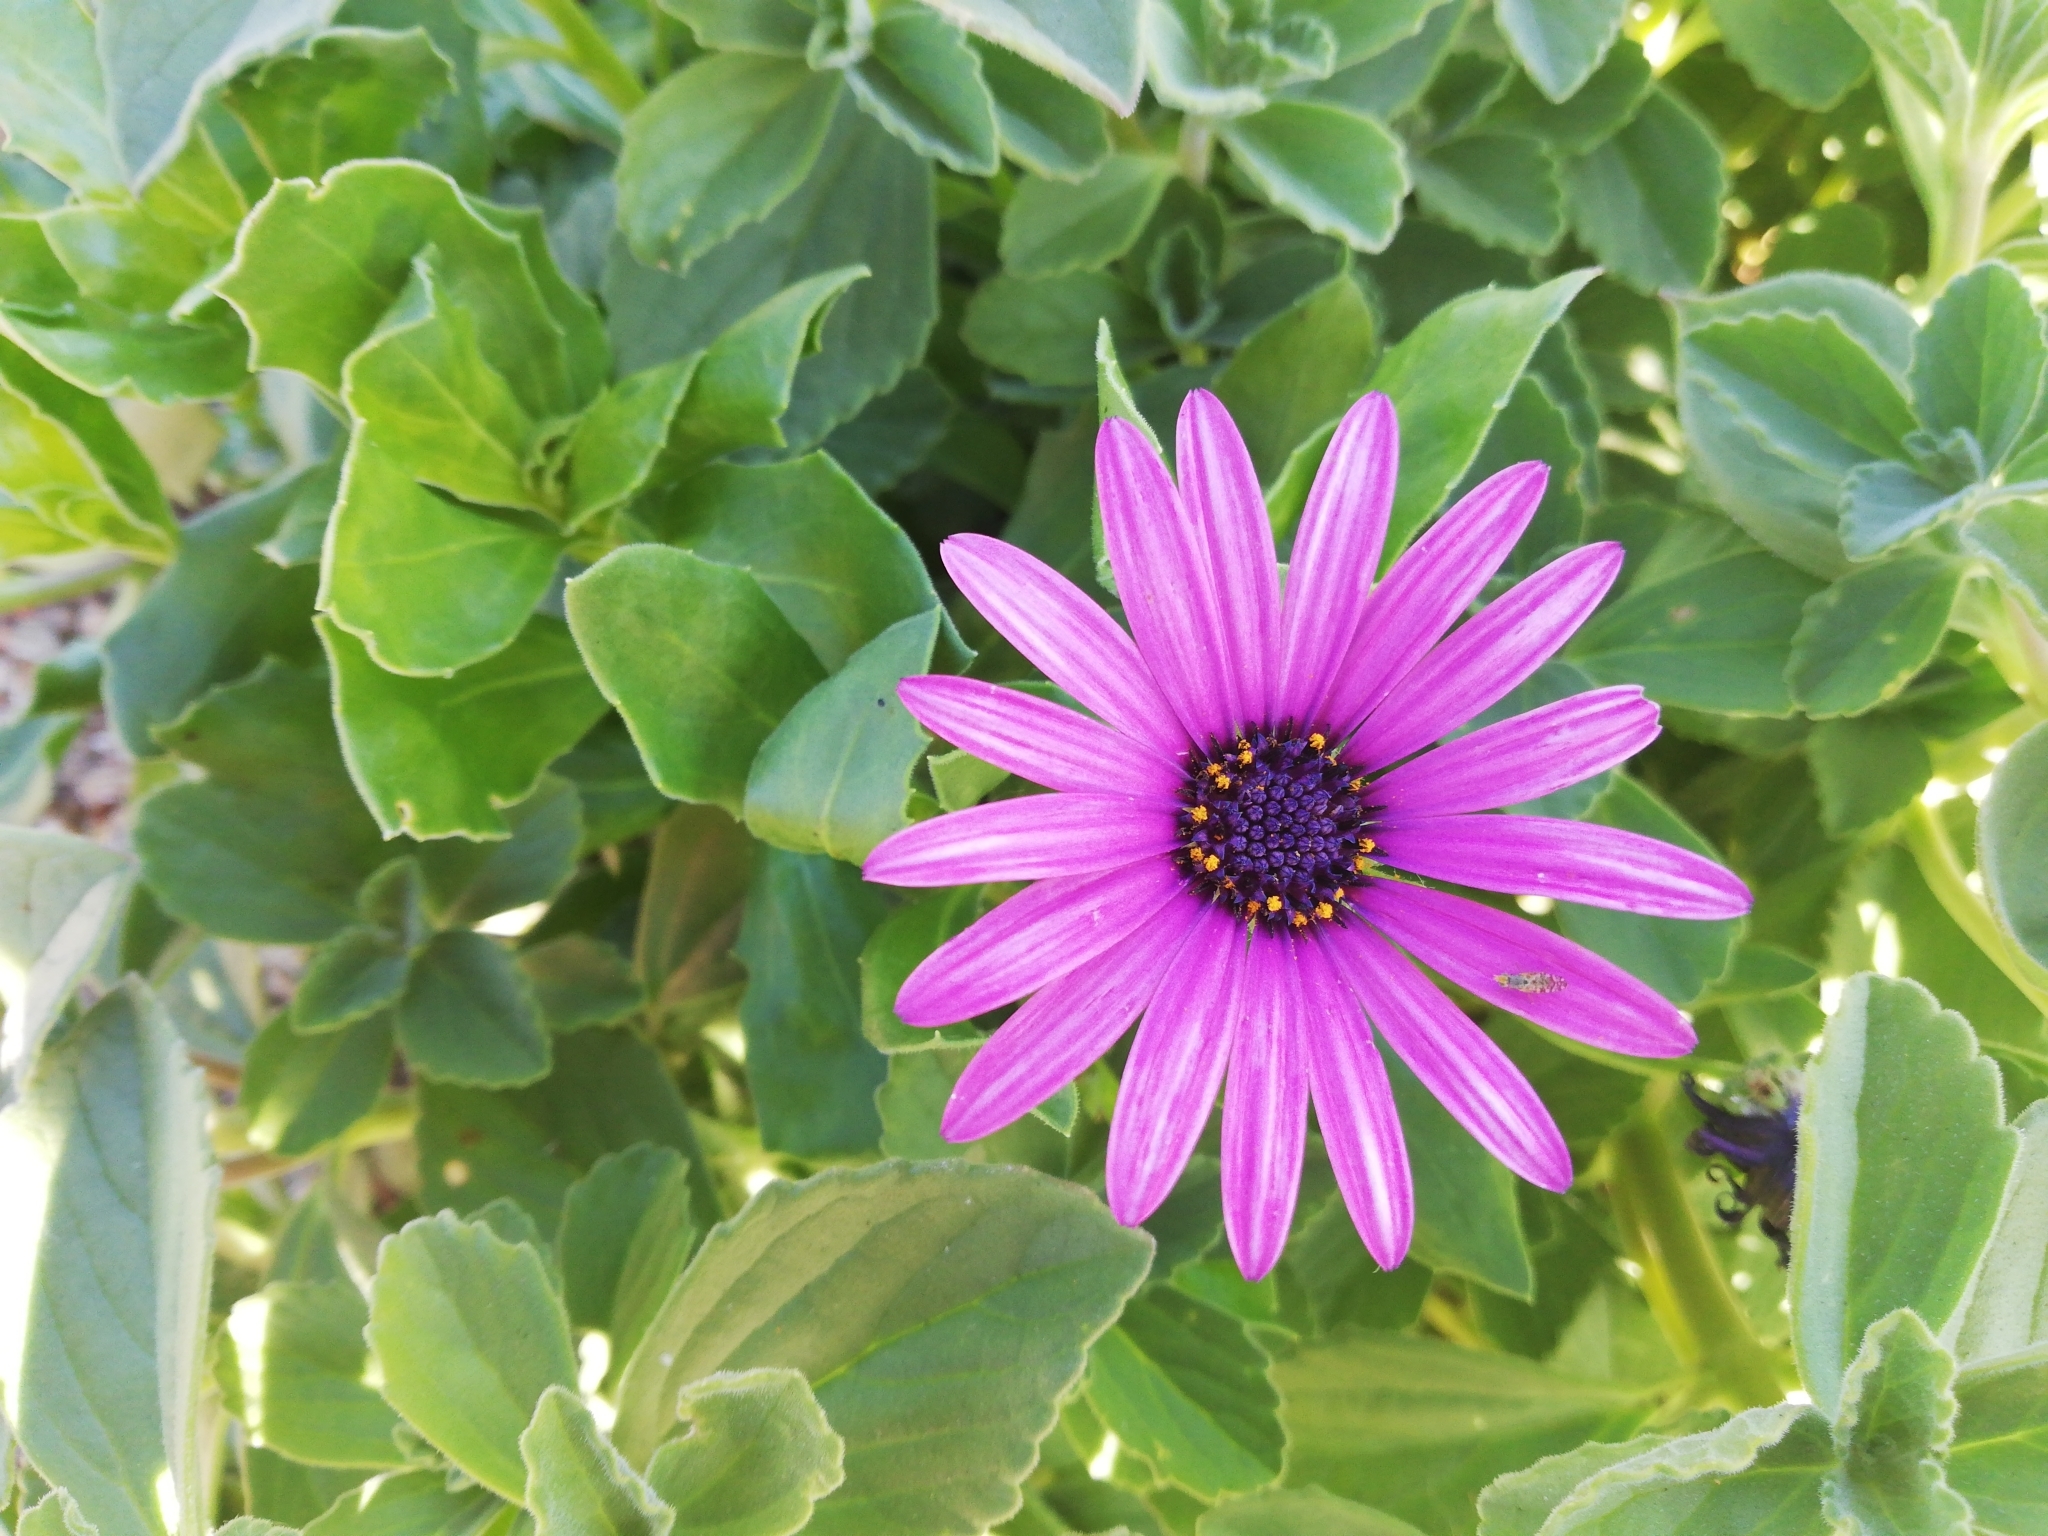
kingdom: Plantae
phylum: Tracheophyta
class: Magnoliopsida
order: Asterales
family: Asteraceae
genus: Dimorphotheca
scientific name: Dimorphotheca fruticosa
